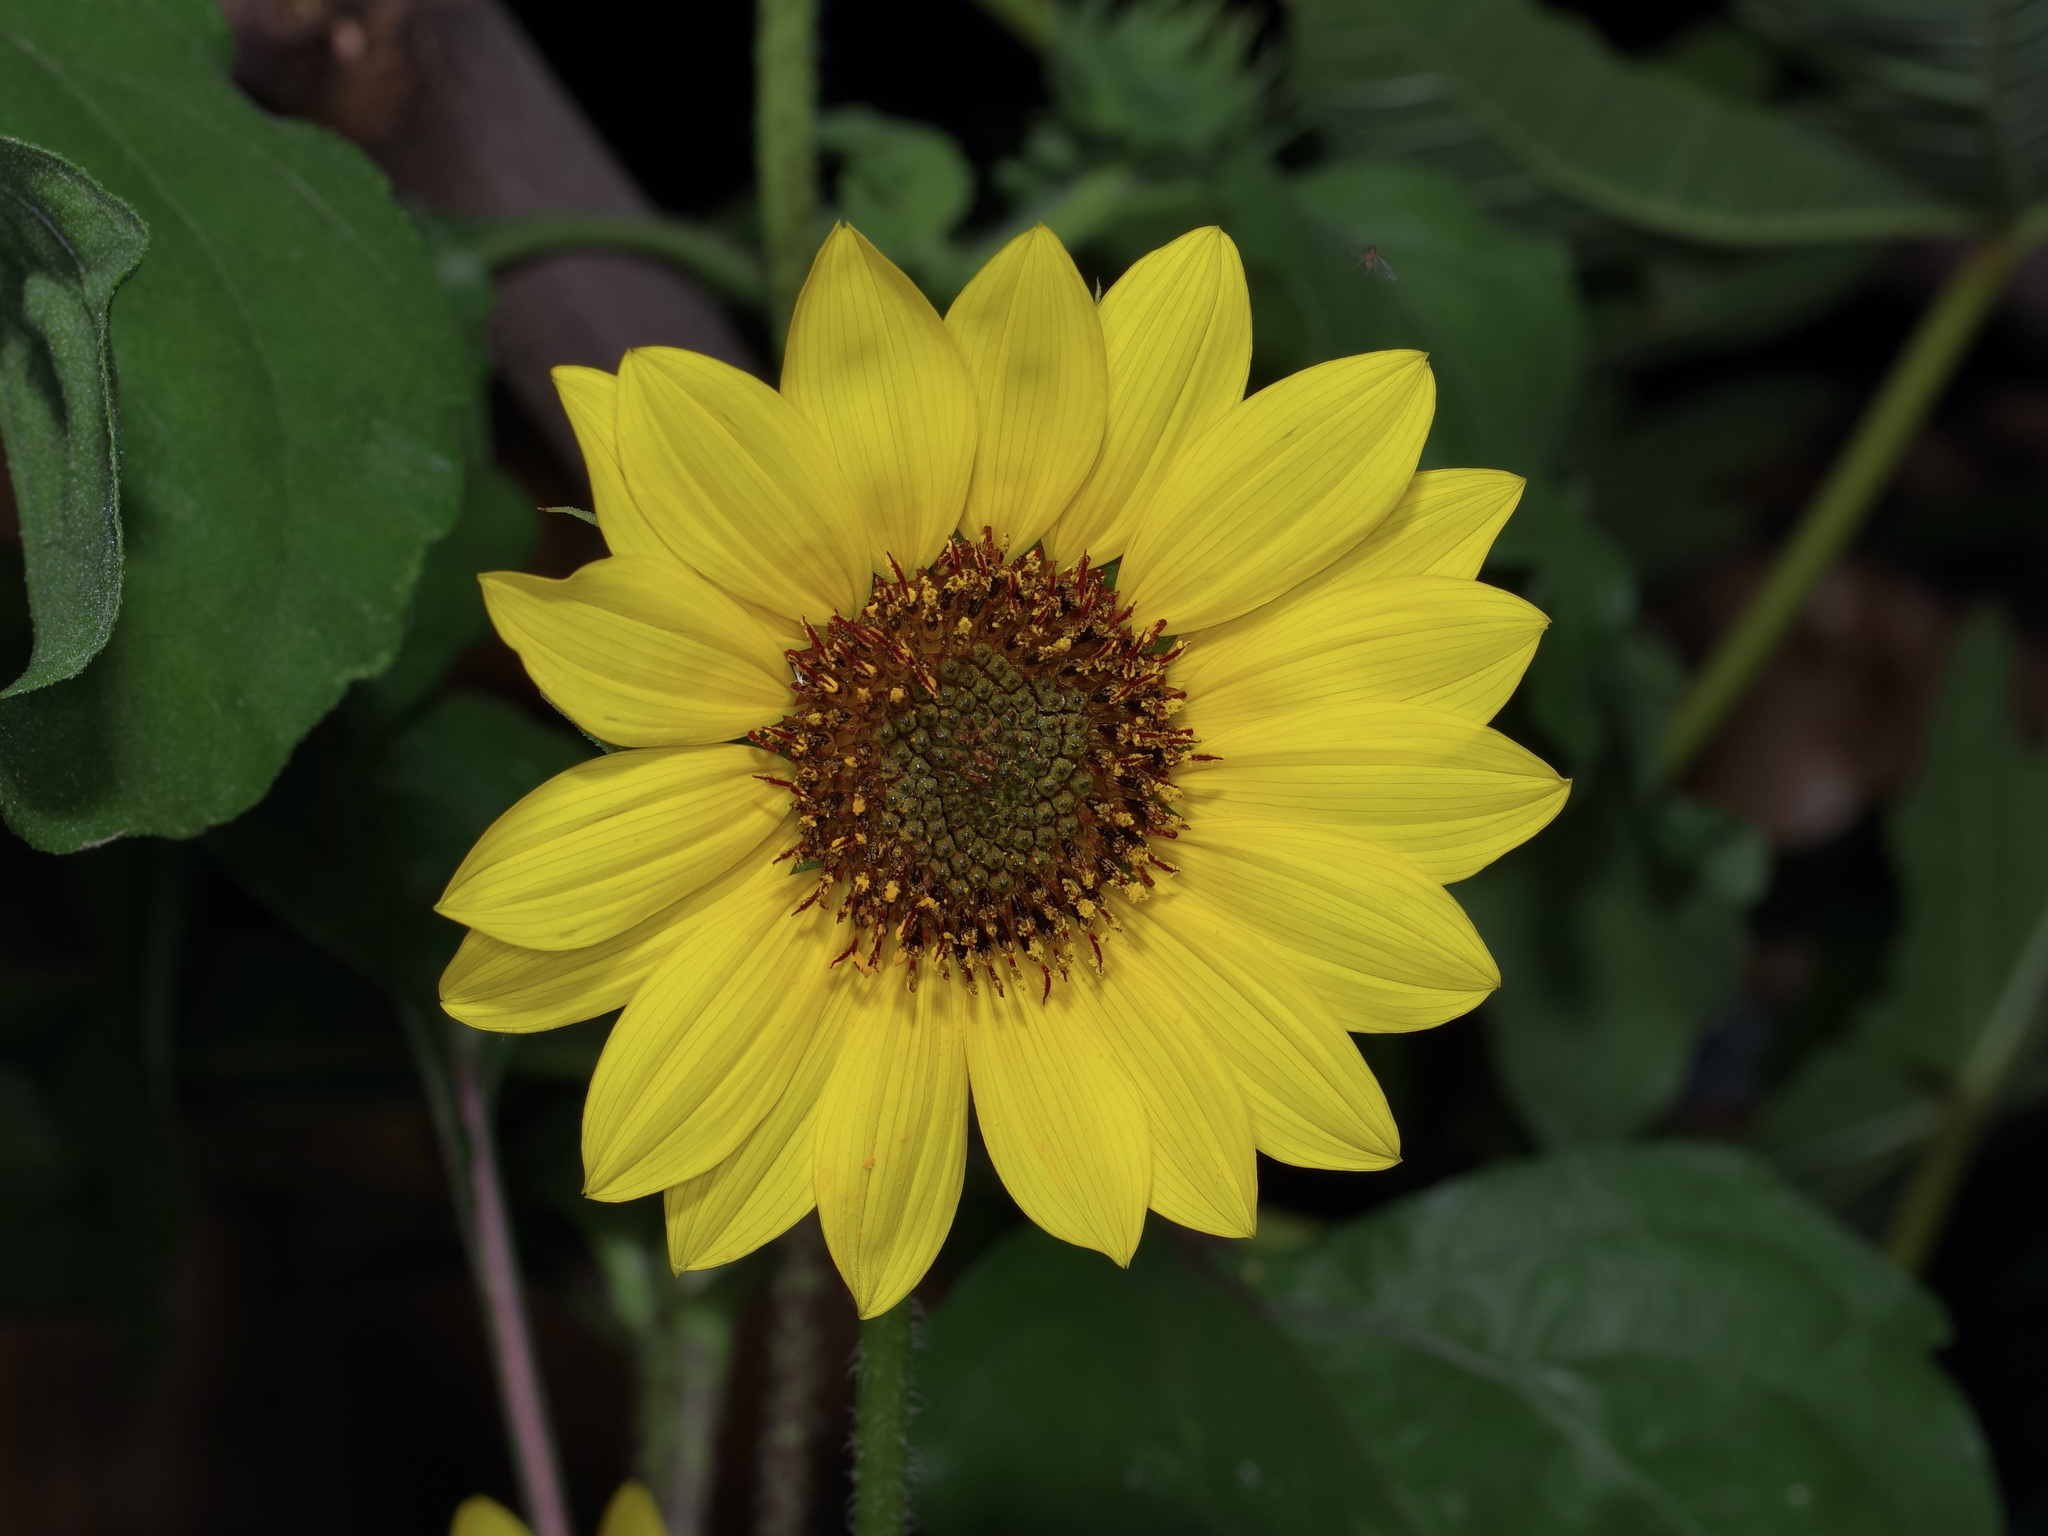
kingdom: Plantae
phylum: Tracheophyta
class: Magnoliopsida
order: Asterales
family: Asteraceae
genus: Helianthus
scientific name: Helianthus annuus
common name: Sunflower
